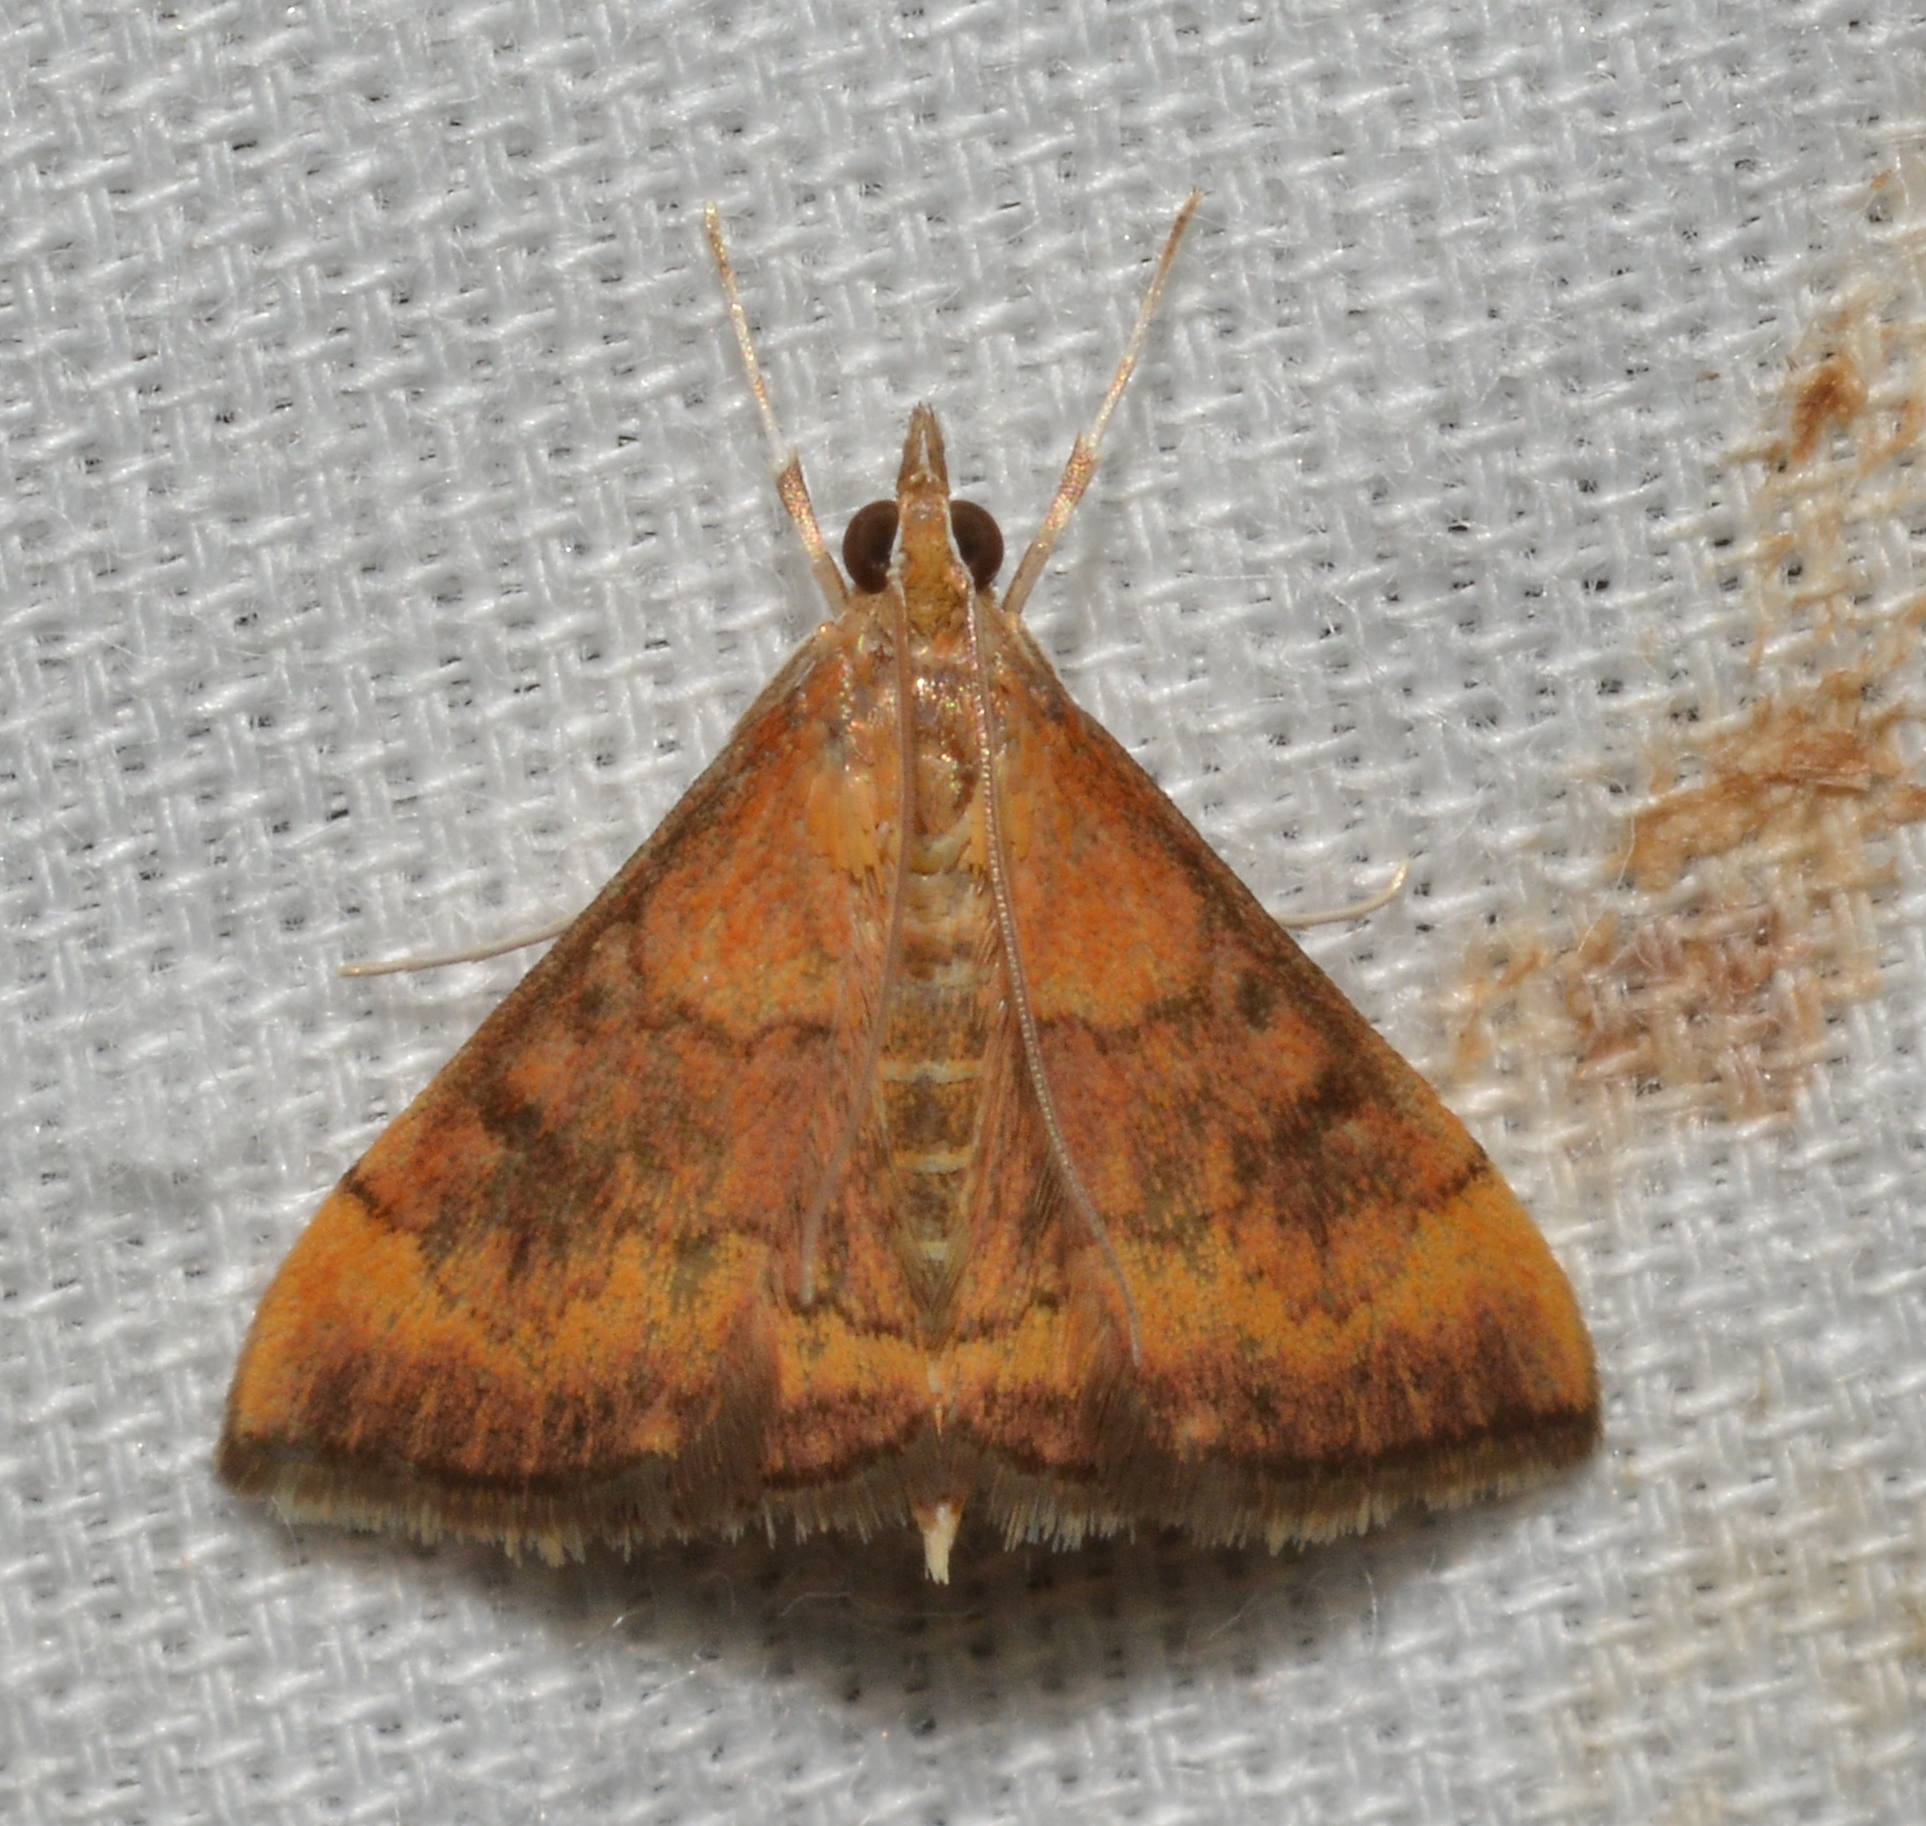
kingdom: Animalia
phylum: Arthropoda
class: Insecta
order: Lepidoptera
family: Crambidae
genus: Pyrausta
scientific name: Pyrausta rubricalis
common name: Variable reddish pyrausta
